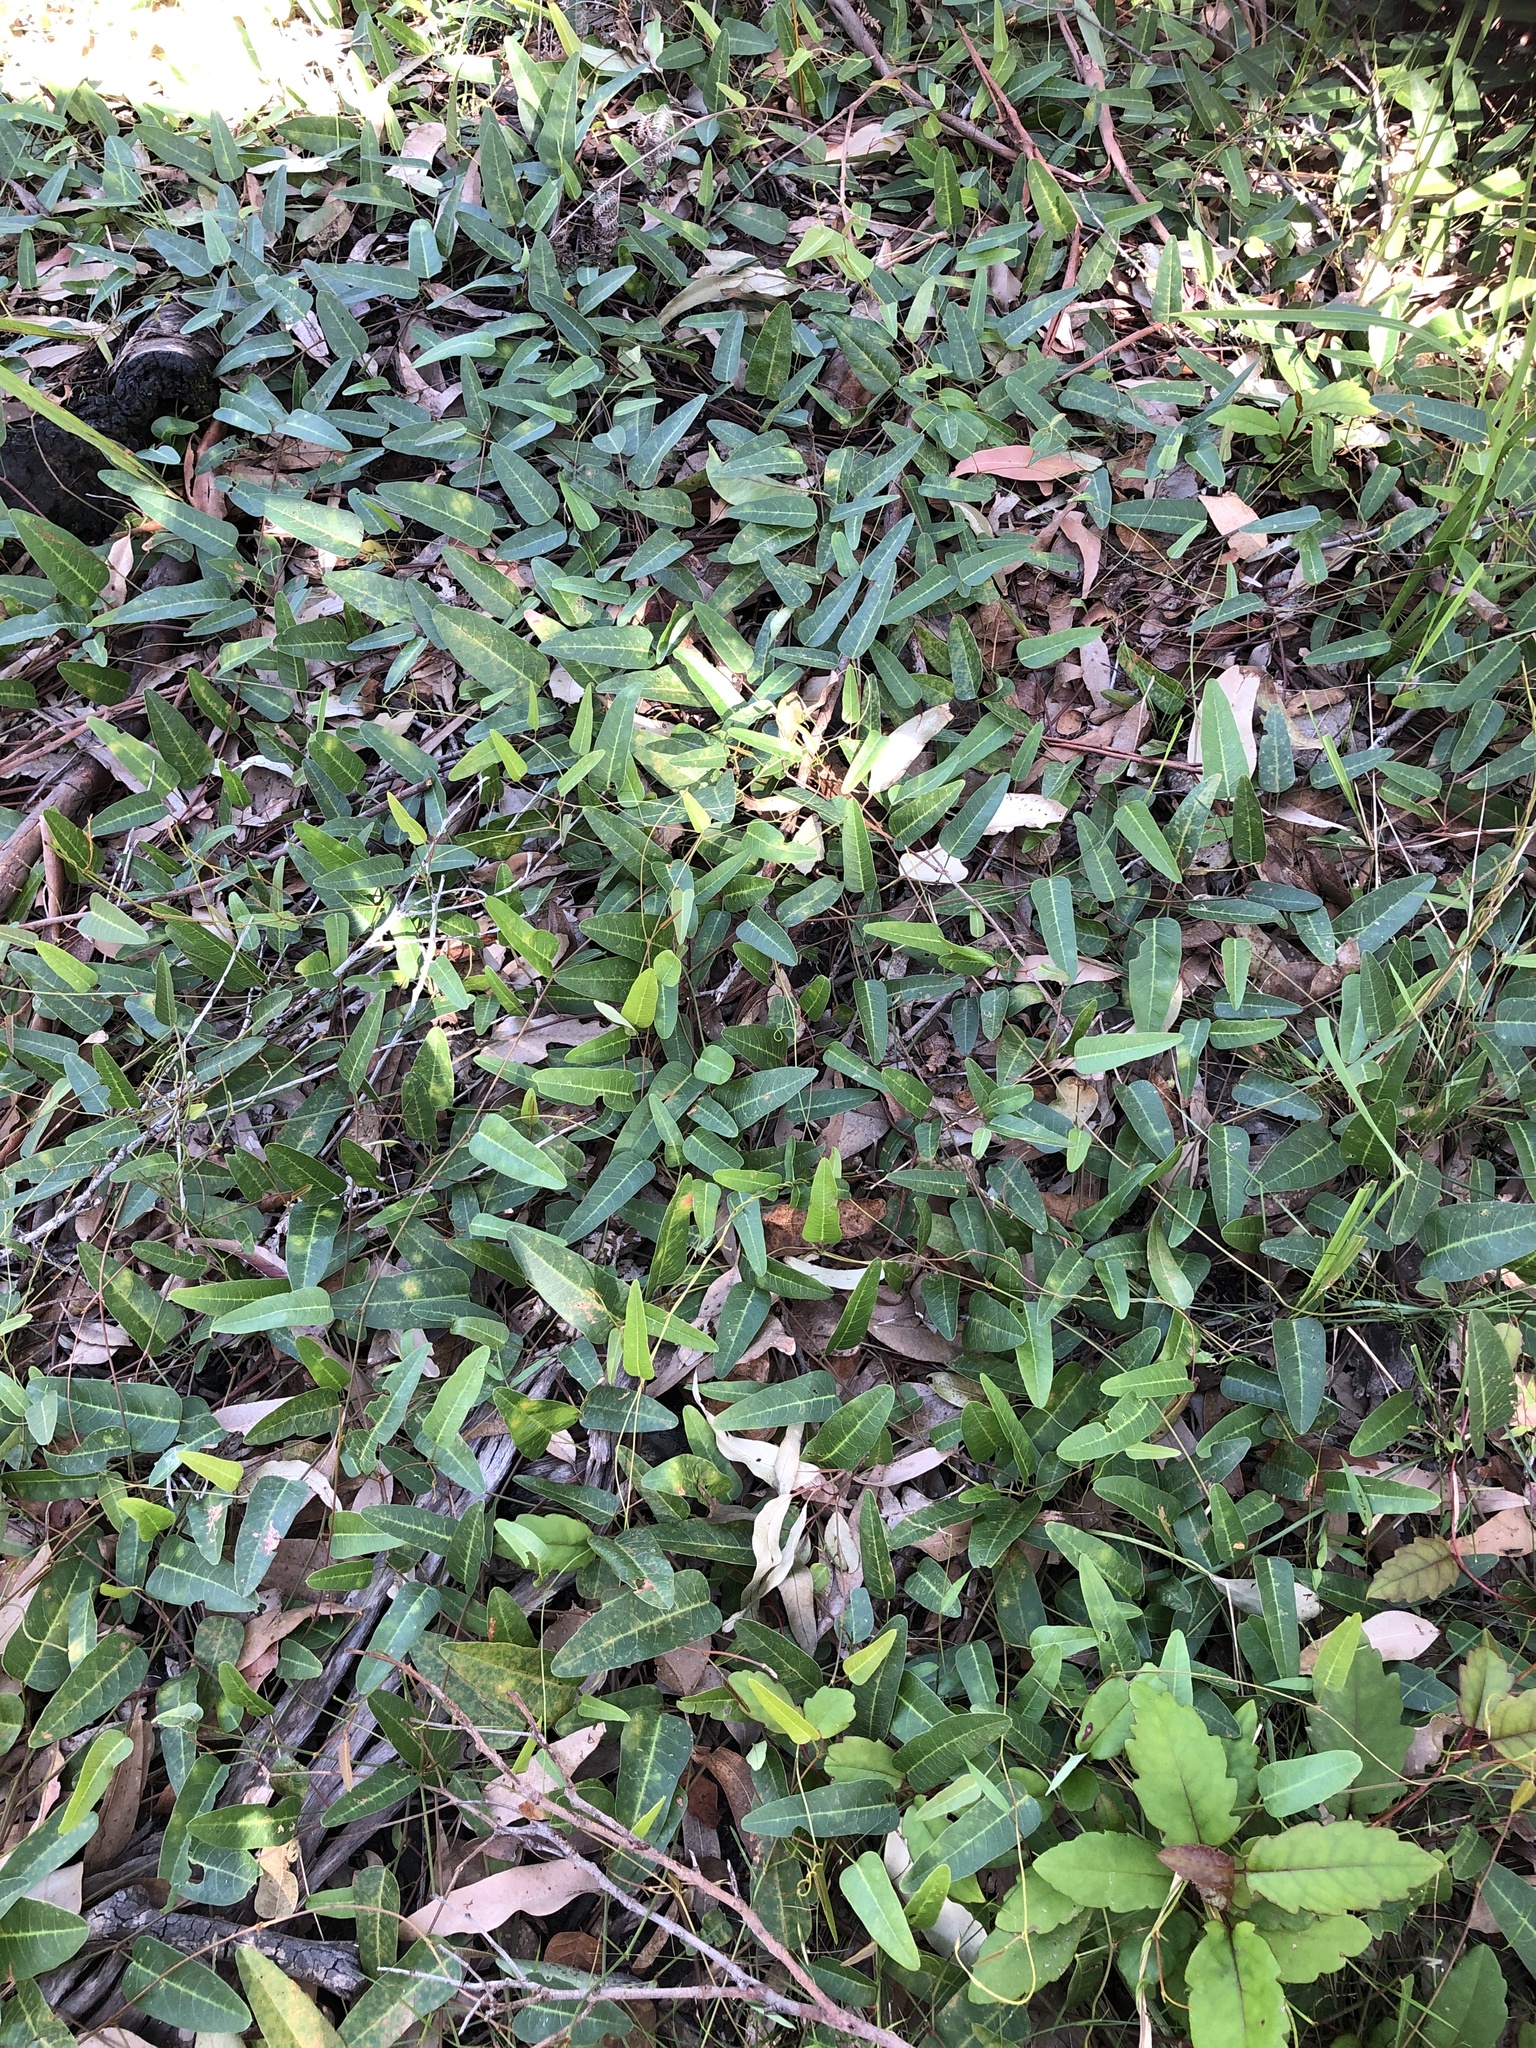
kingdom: Plantae
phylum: Tracheophyta
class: Magnoliopsida
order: Fabales
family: Fabaceae
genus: Hardenbergia
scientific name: Hardenbergia violacea
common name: Coral-pea
